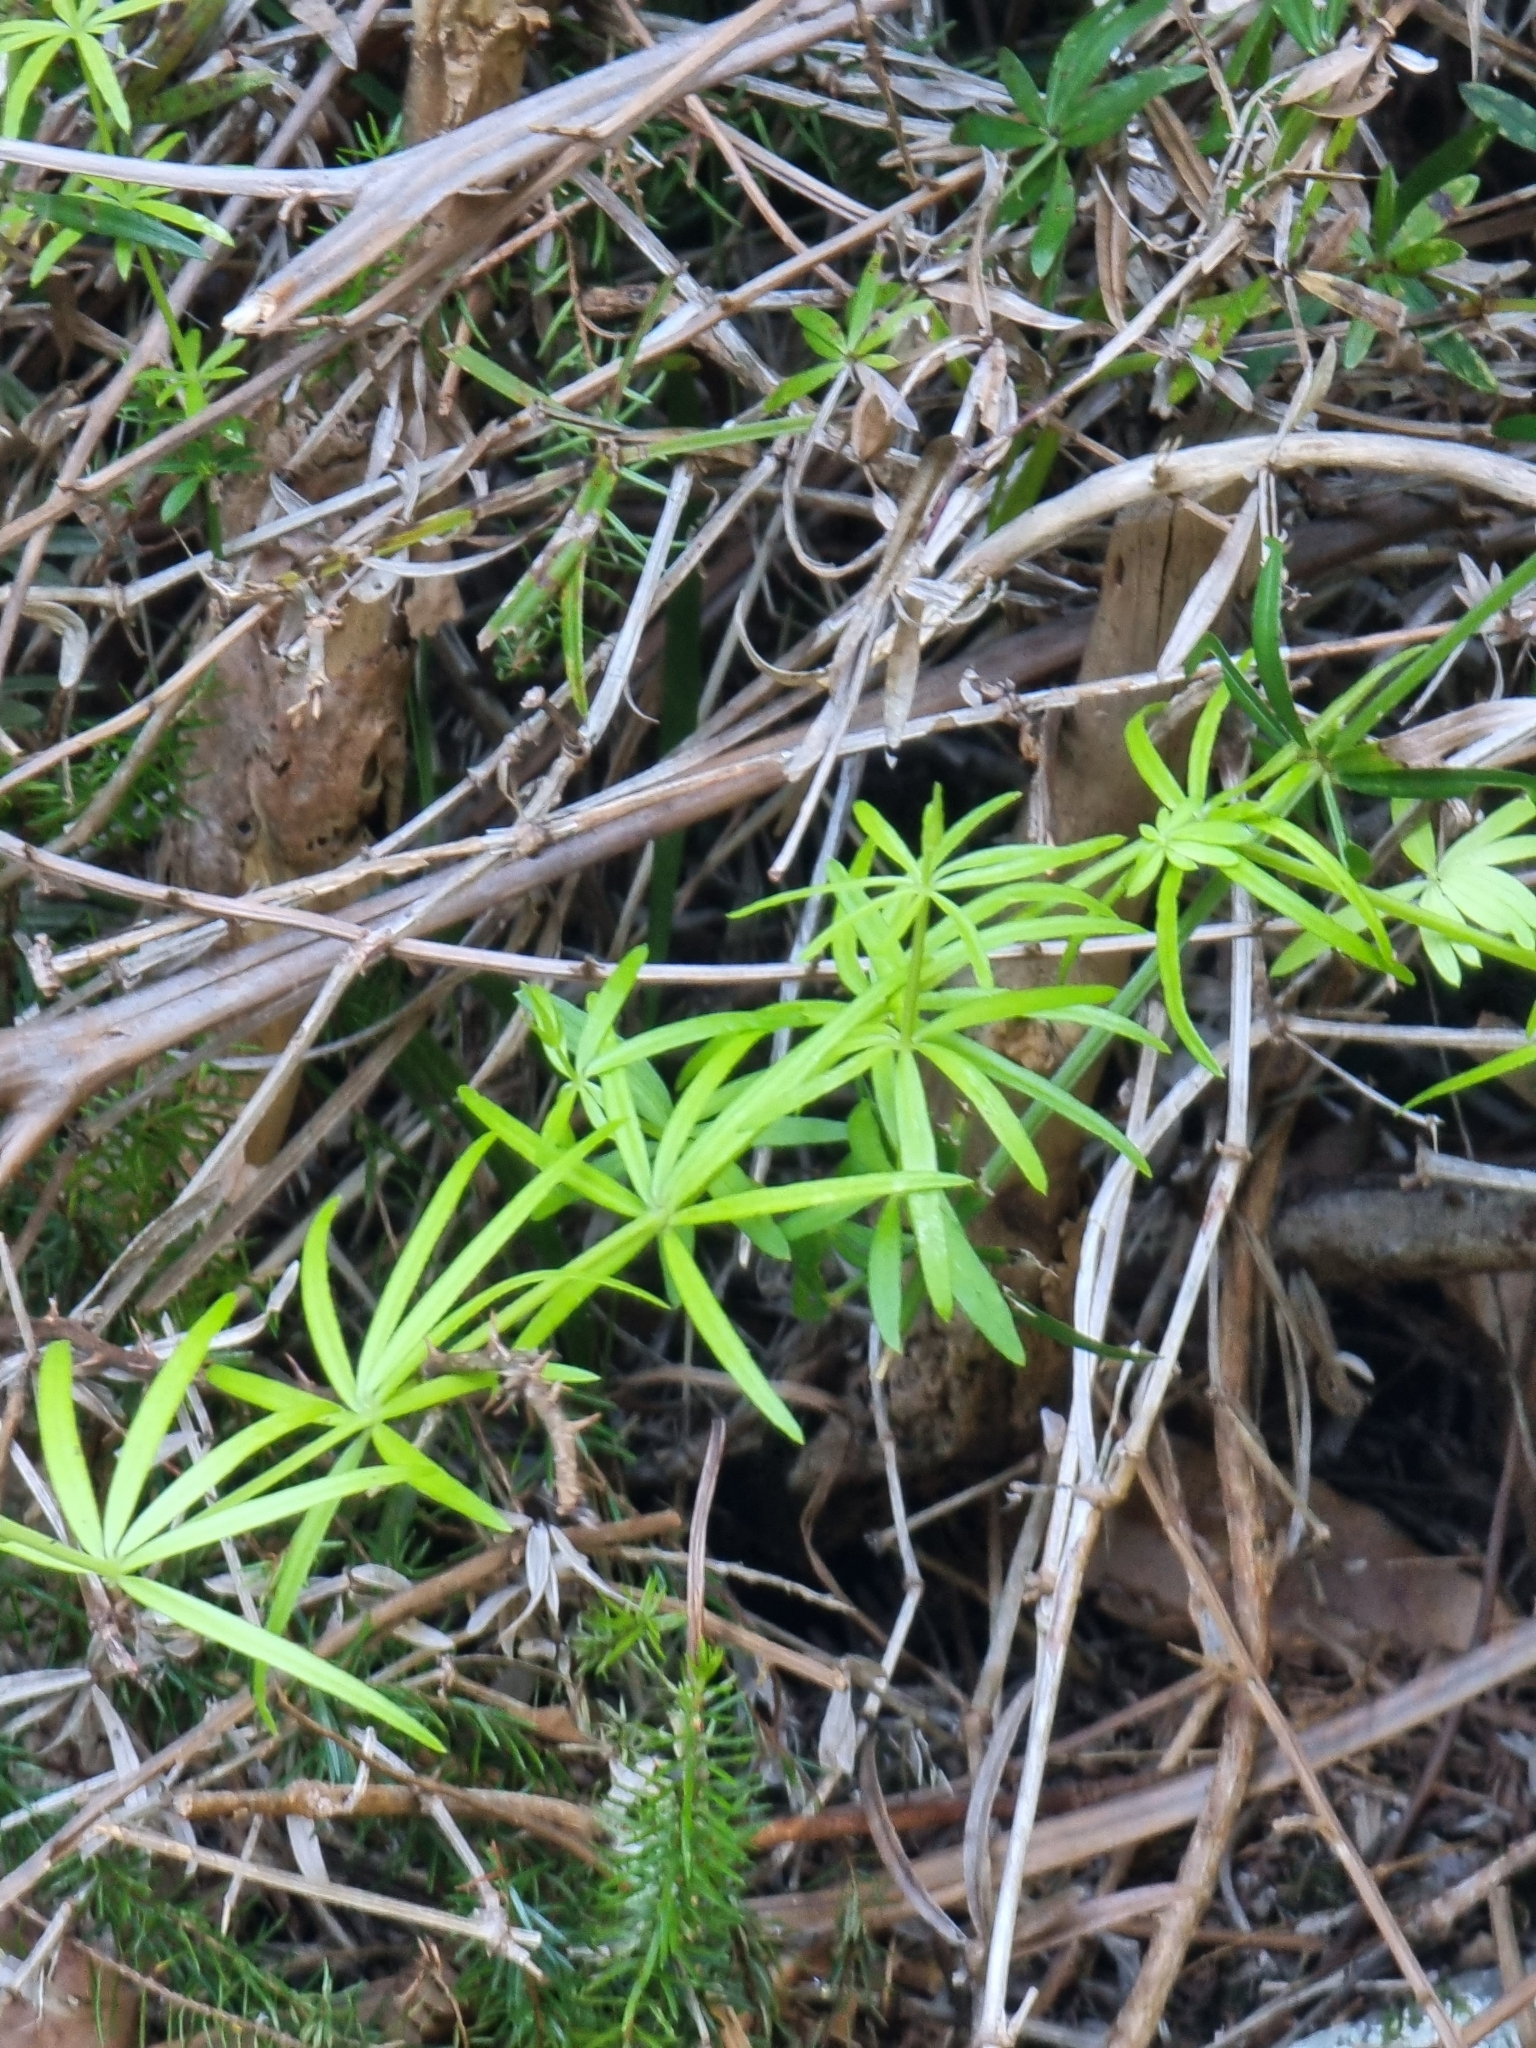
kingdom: Plantae
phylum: Tracheophyta
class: Magnoliopsida
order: Gentianales
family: Rubiaceae
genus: Rubia
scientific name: Rubia occidens
